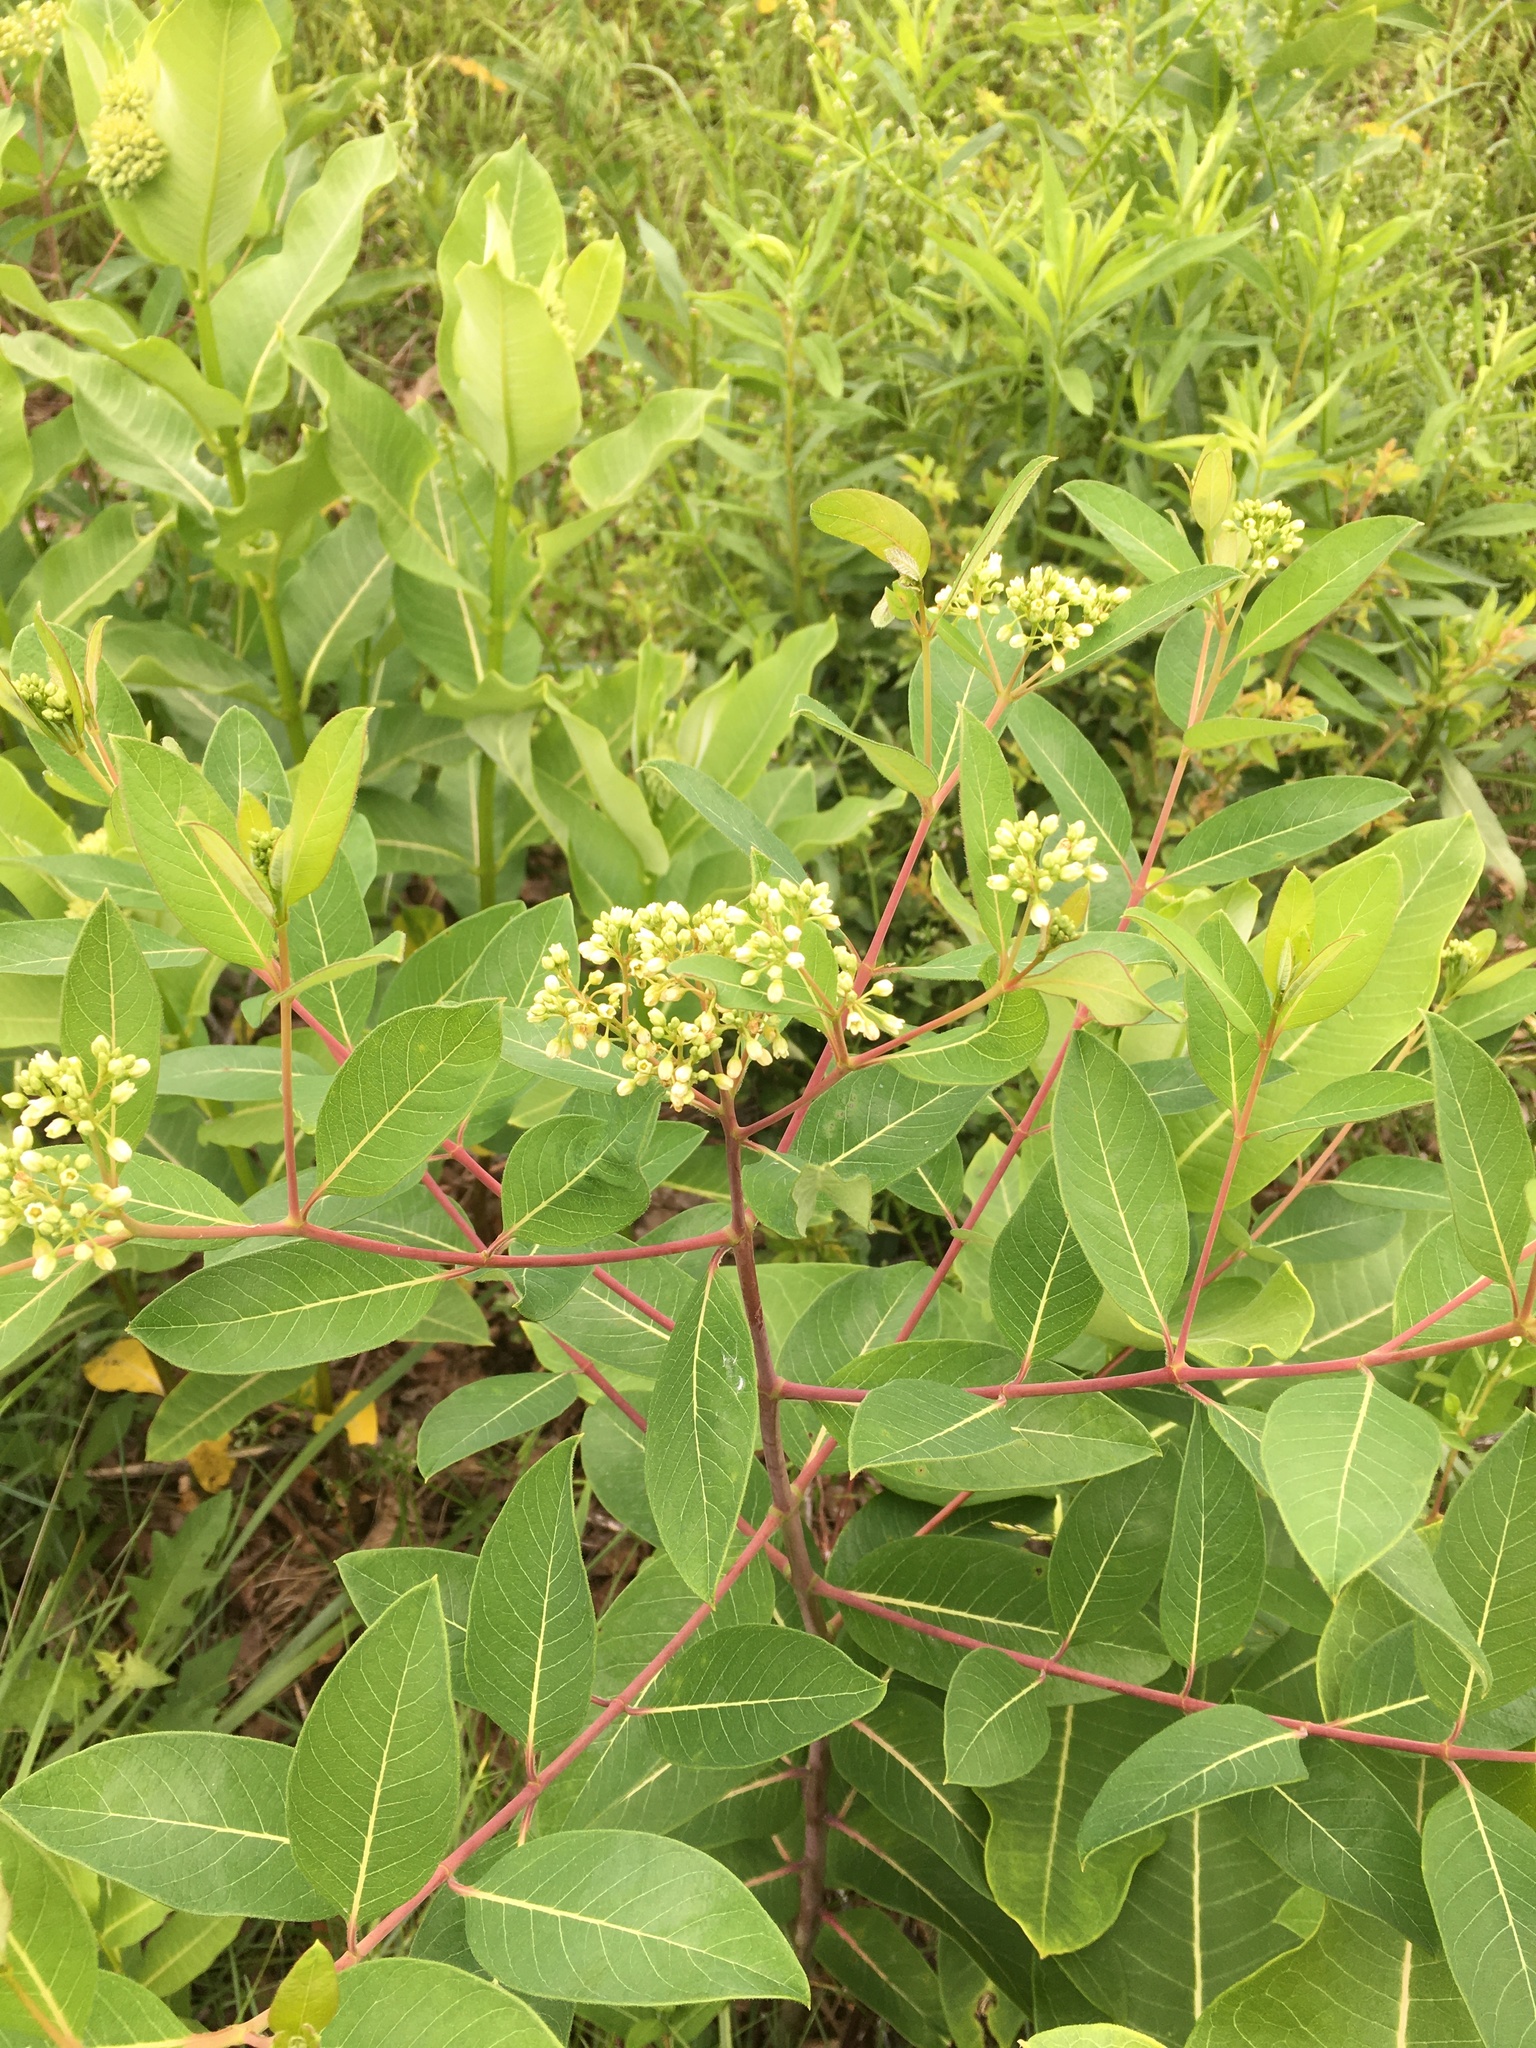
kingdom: Plantae
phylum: Tracheophyta
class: Magnoliopsida
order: Gentianales
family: Apocynaceae
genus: Apocynum
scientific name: Apocynum cannabinum
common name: Hemp dogbane
